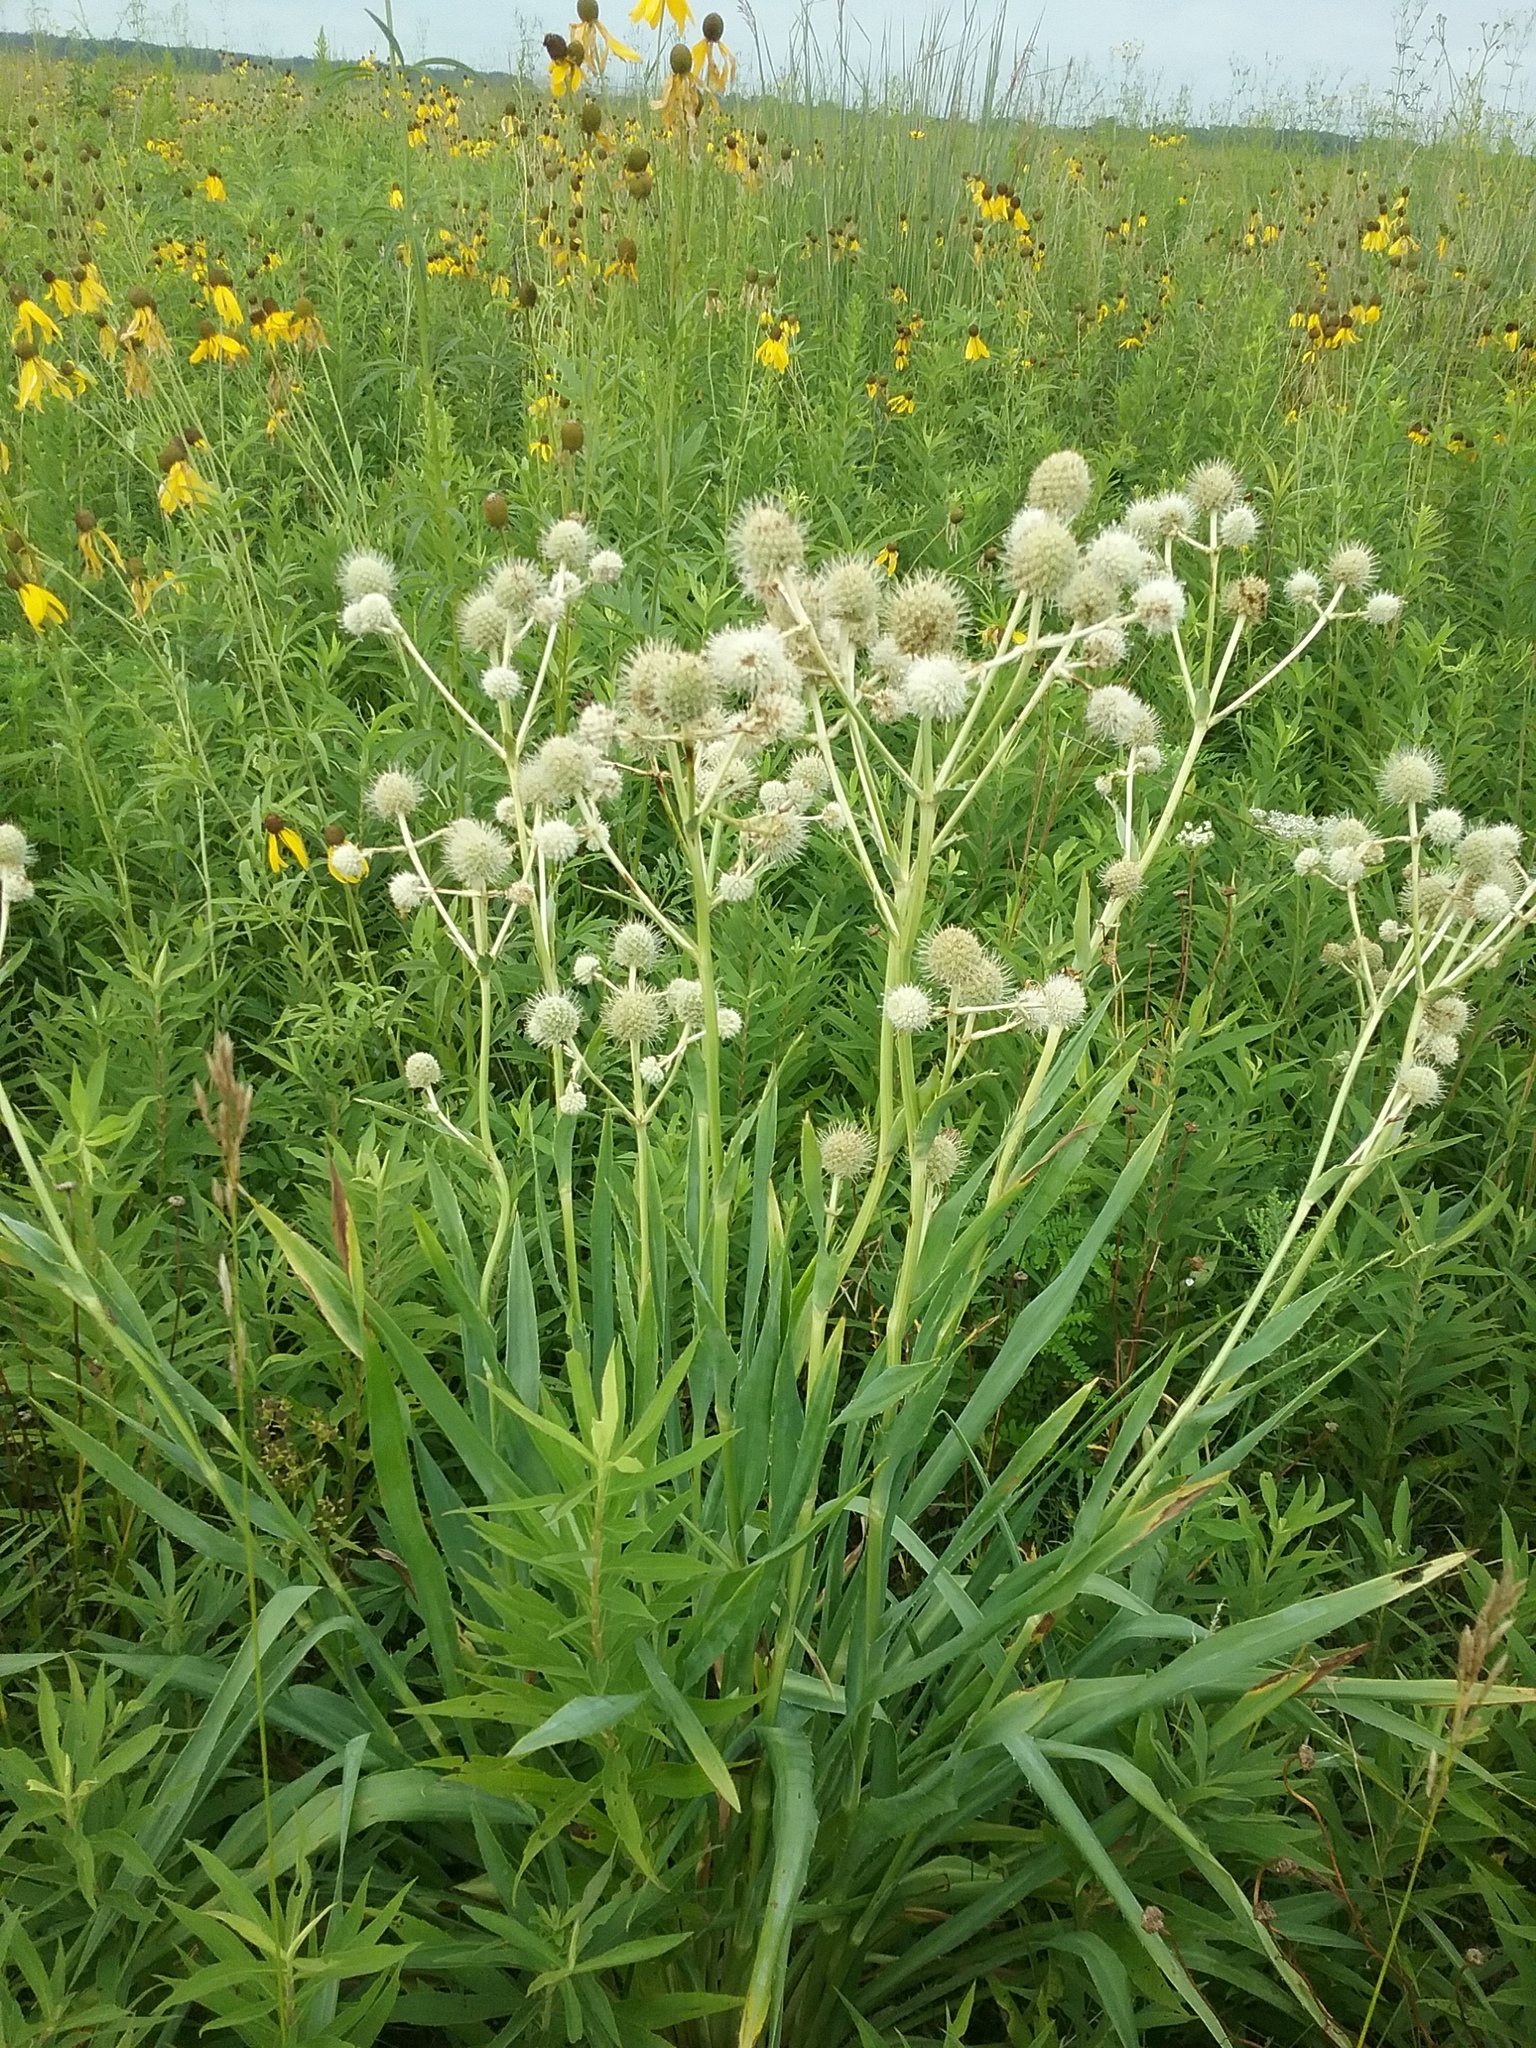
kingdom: Plantae
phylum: Tracheophyta
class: Magnoliopsida
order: Apiales
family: Apiaceae
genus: Eryngium
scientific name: Eryngium yuccifolium
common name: Button eryngo
